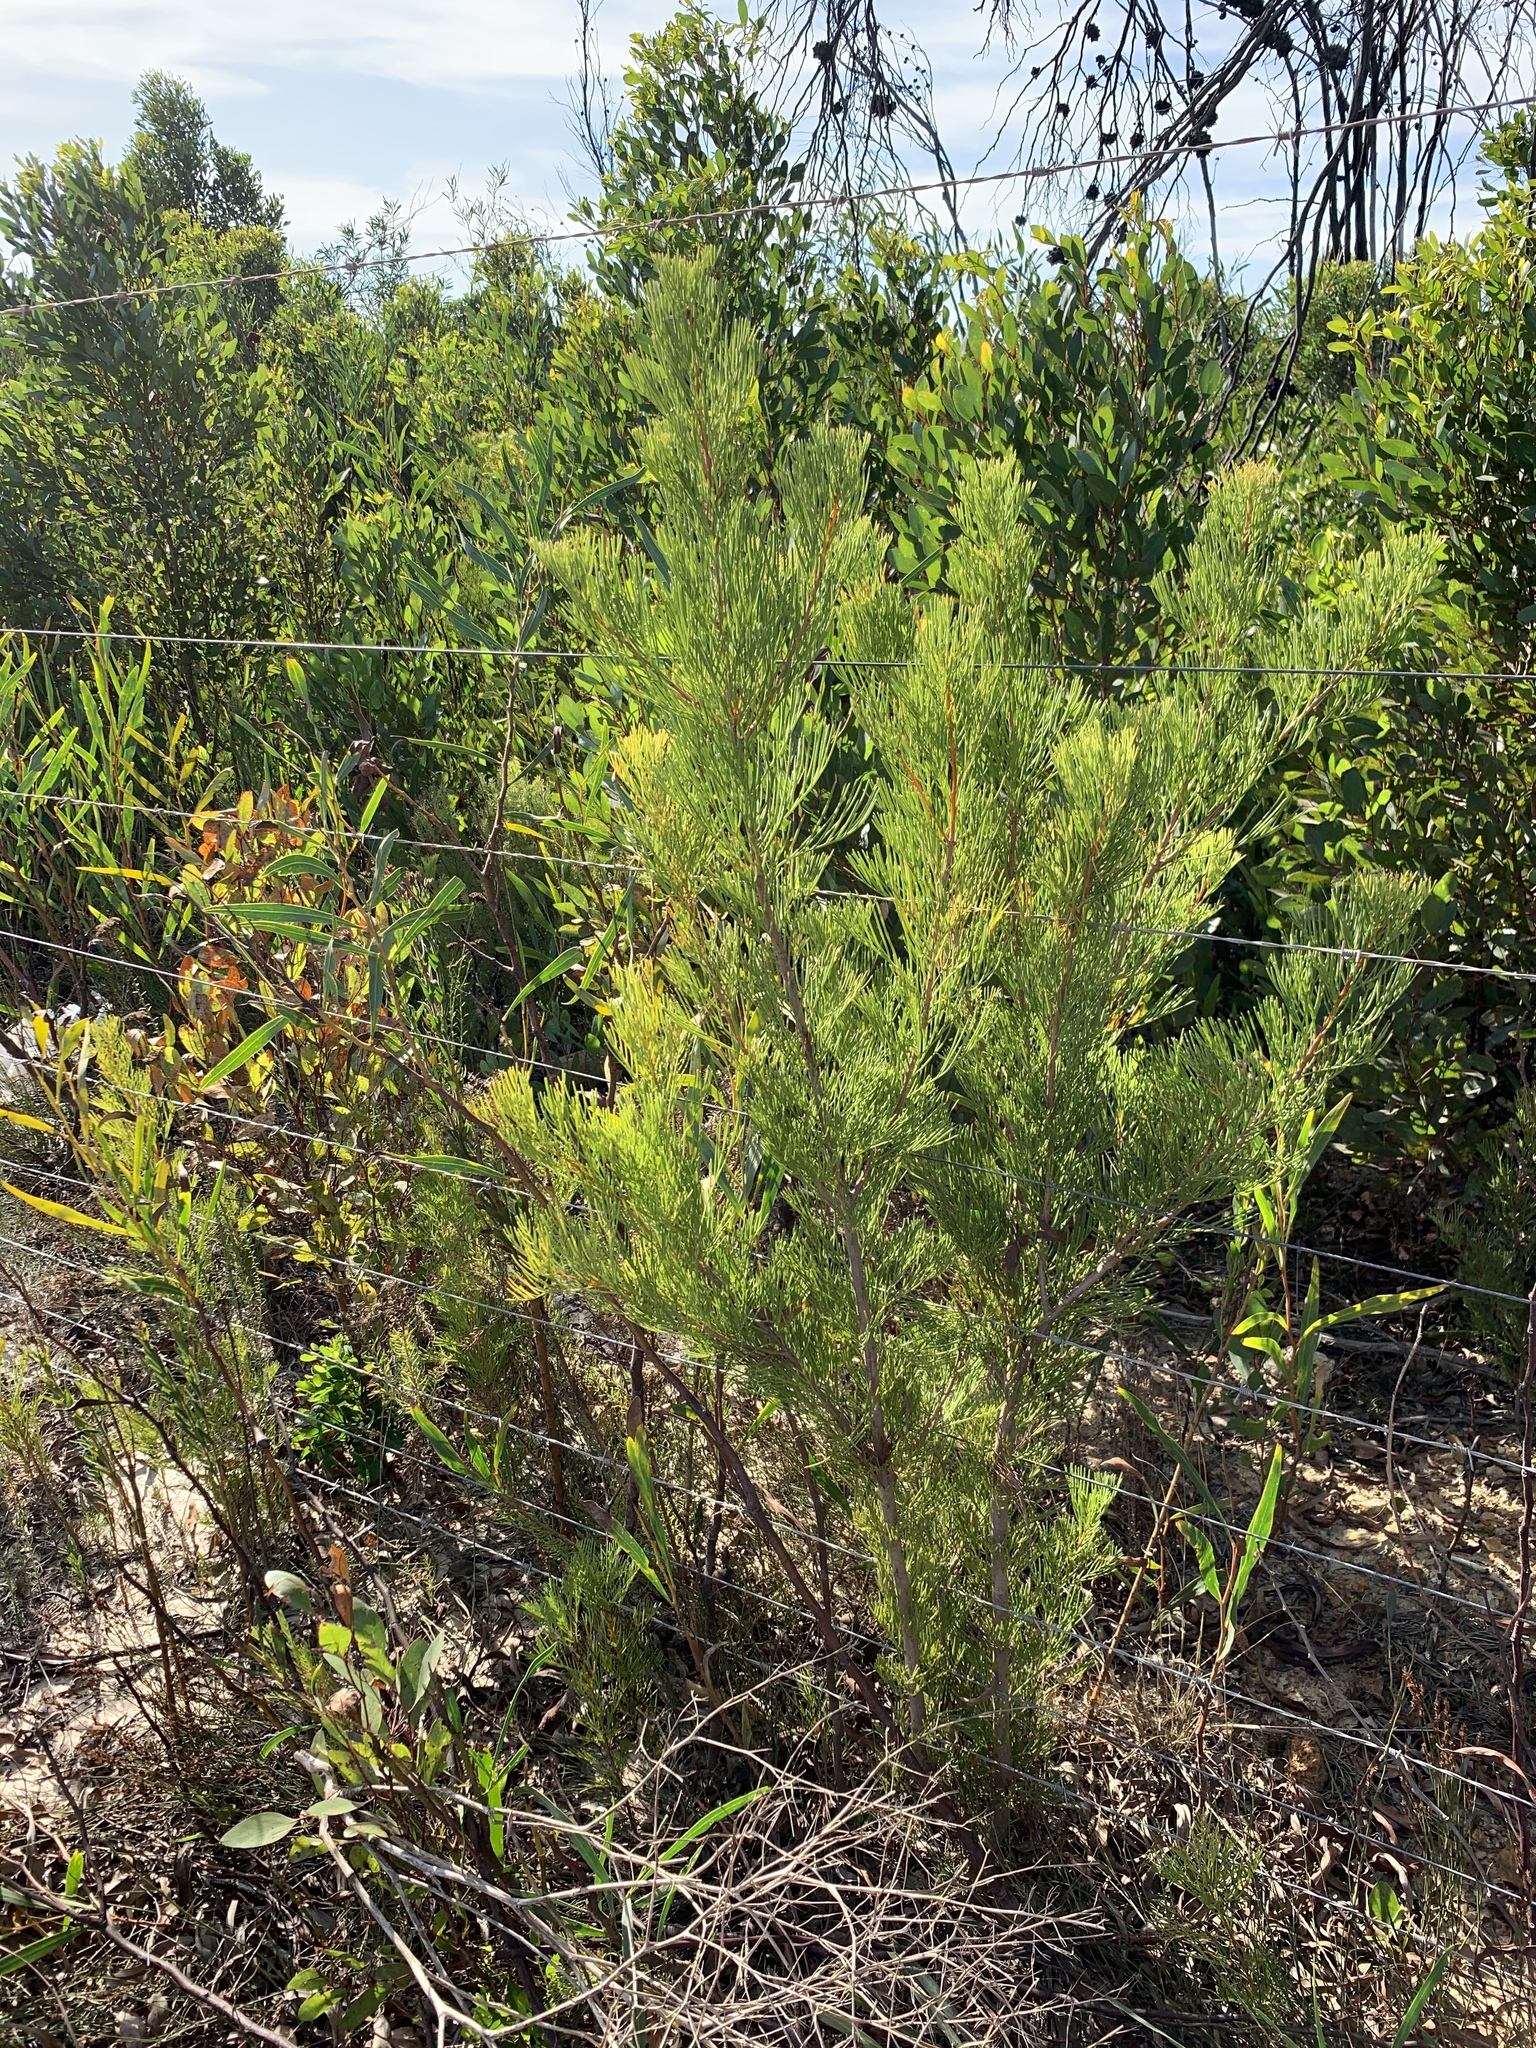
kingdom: Plantae
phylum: Tracheophyta
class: Magnoliopsida
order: Proteales
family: Proteaceae
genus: Hakea
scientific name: Hakea drupacea
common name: Sweet hakea
